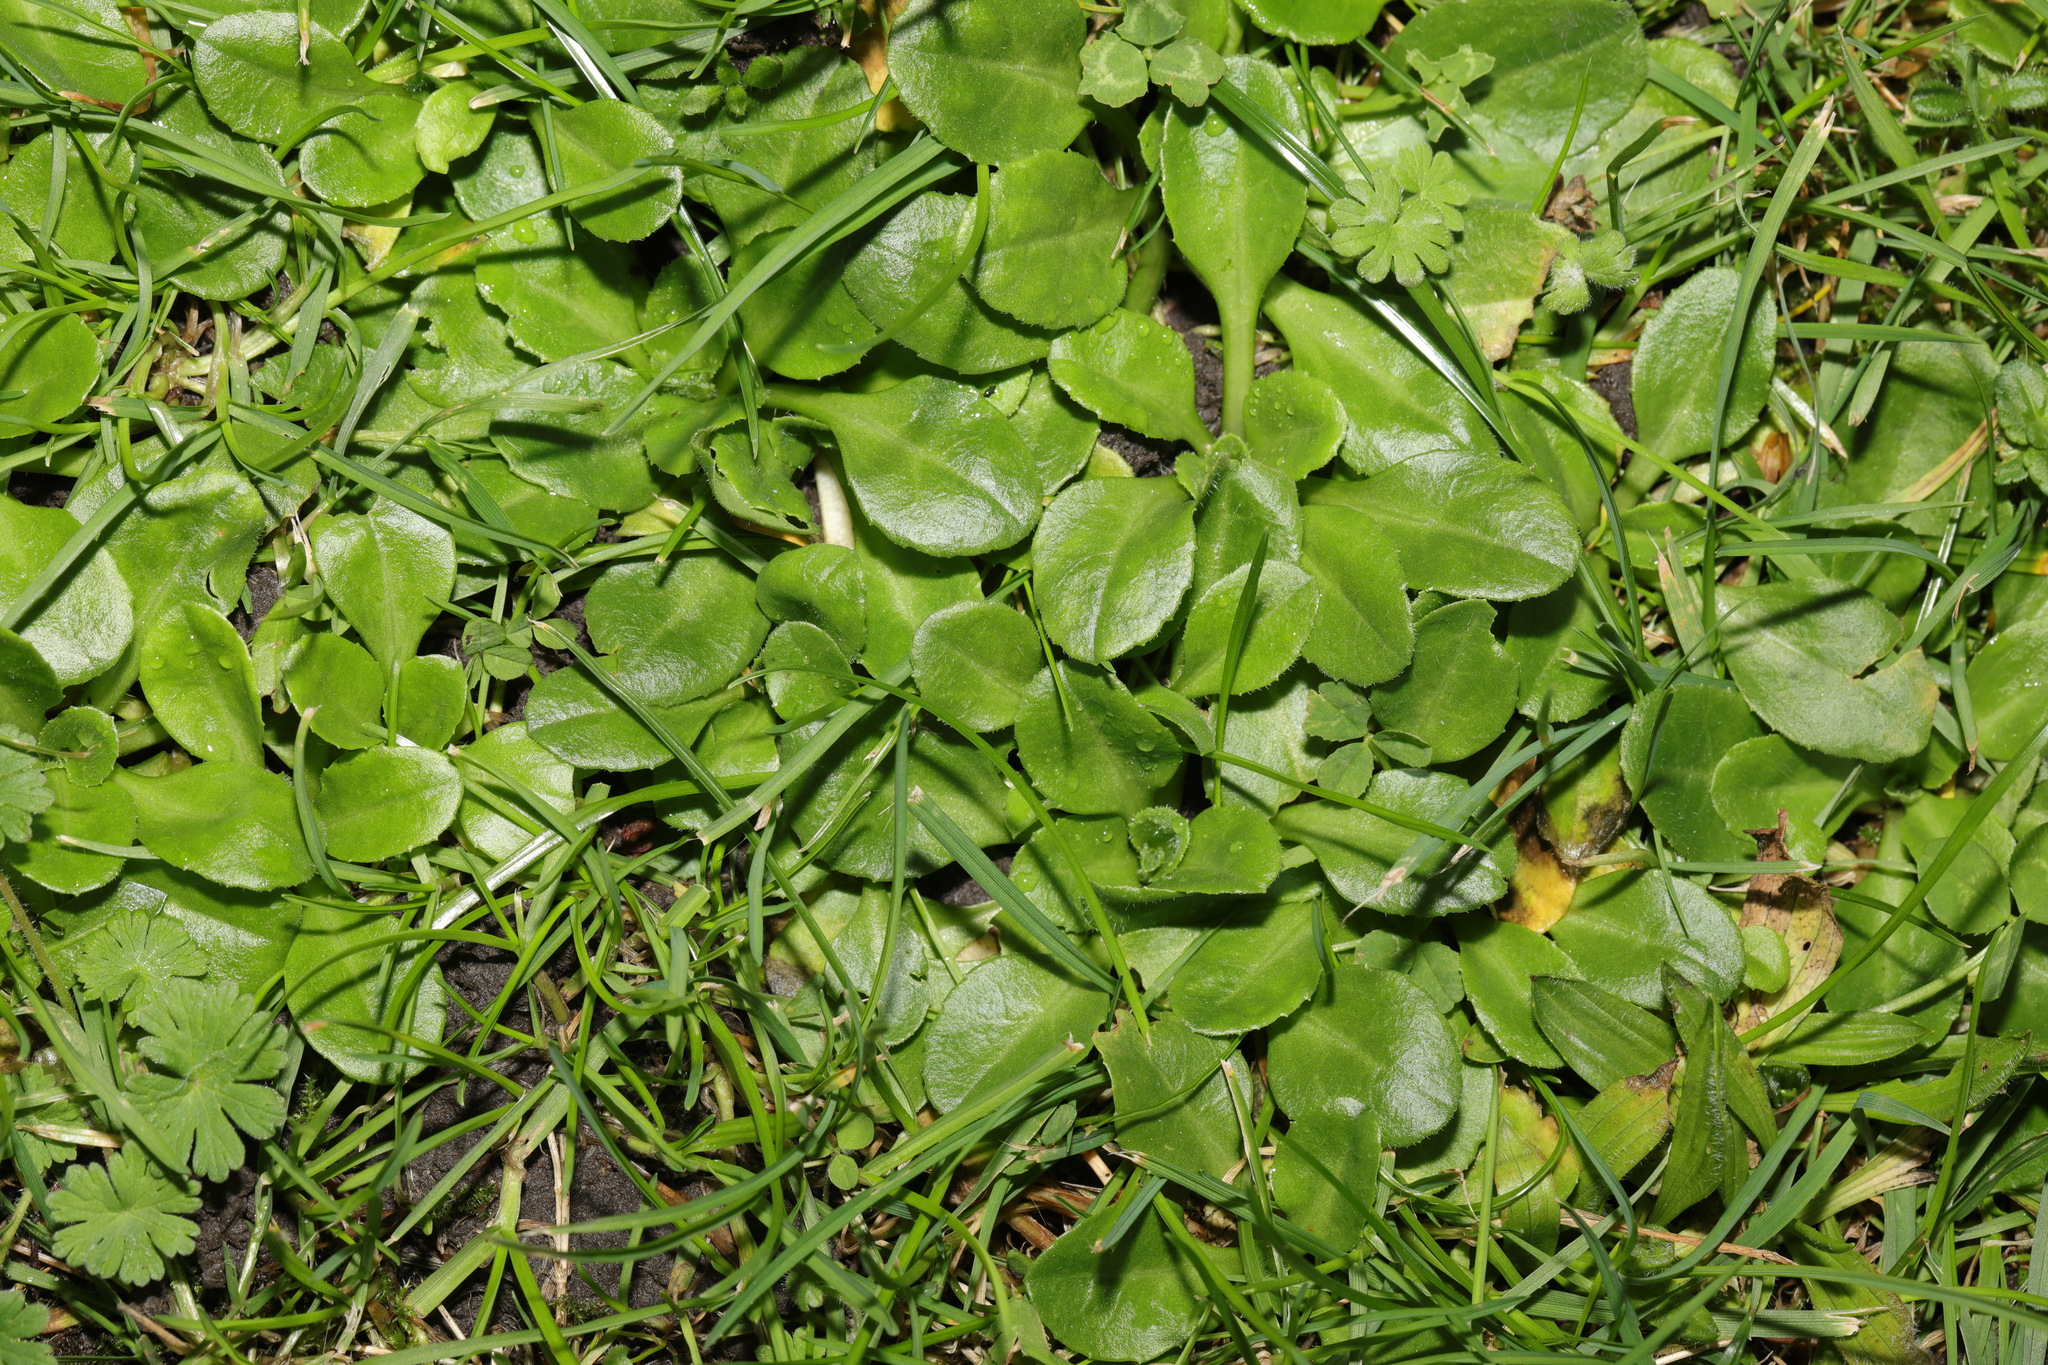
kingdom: Plantae
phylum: Tracheophyta
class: Magnoliopsida
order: Asterales
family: Asteraceae
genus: Bellis
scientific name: Bellis perennis
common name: Lawndaisy
